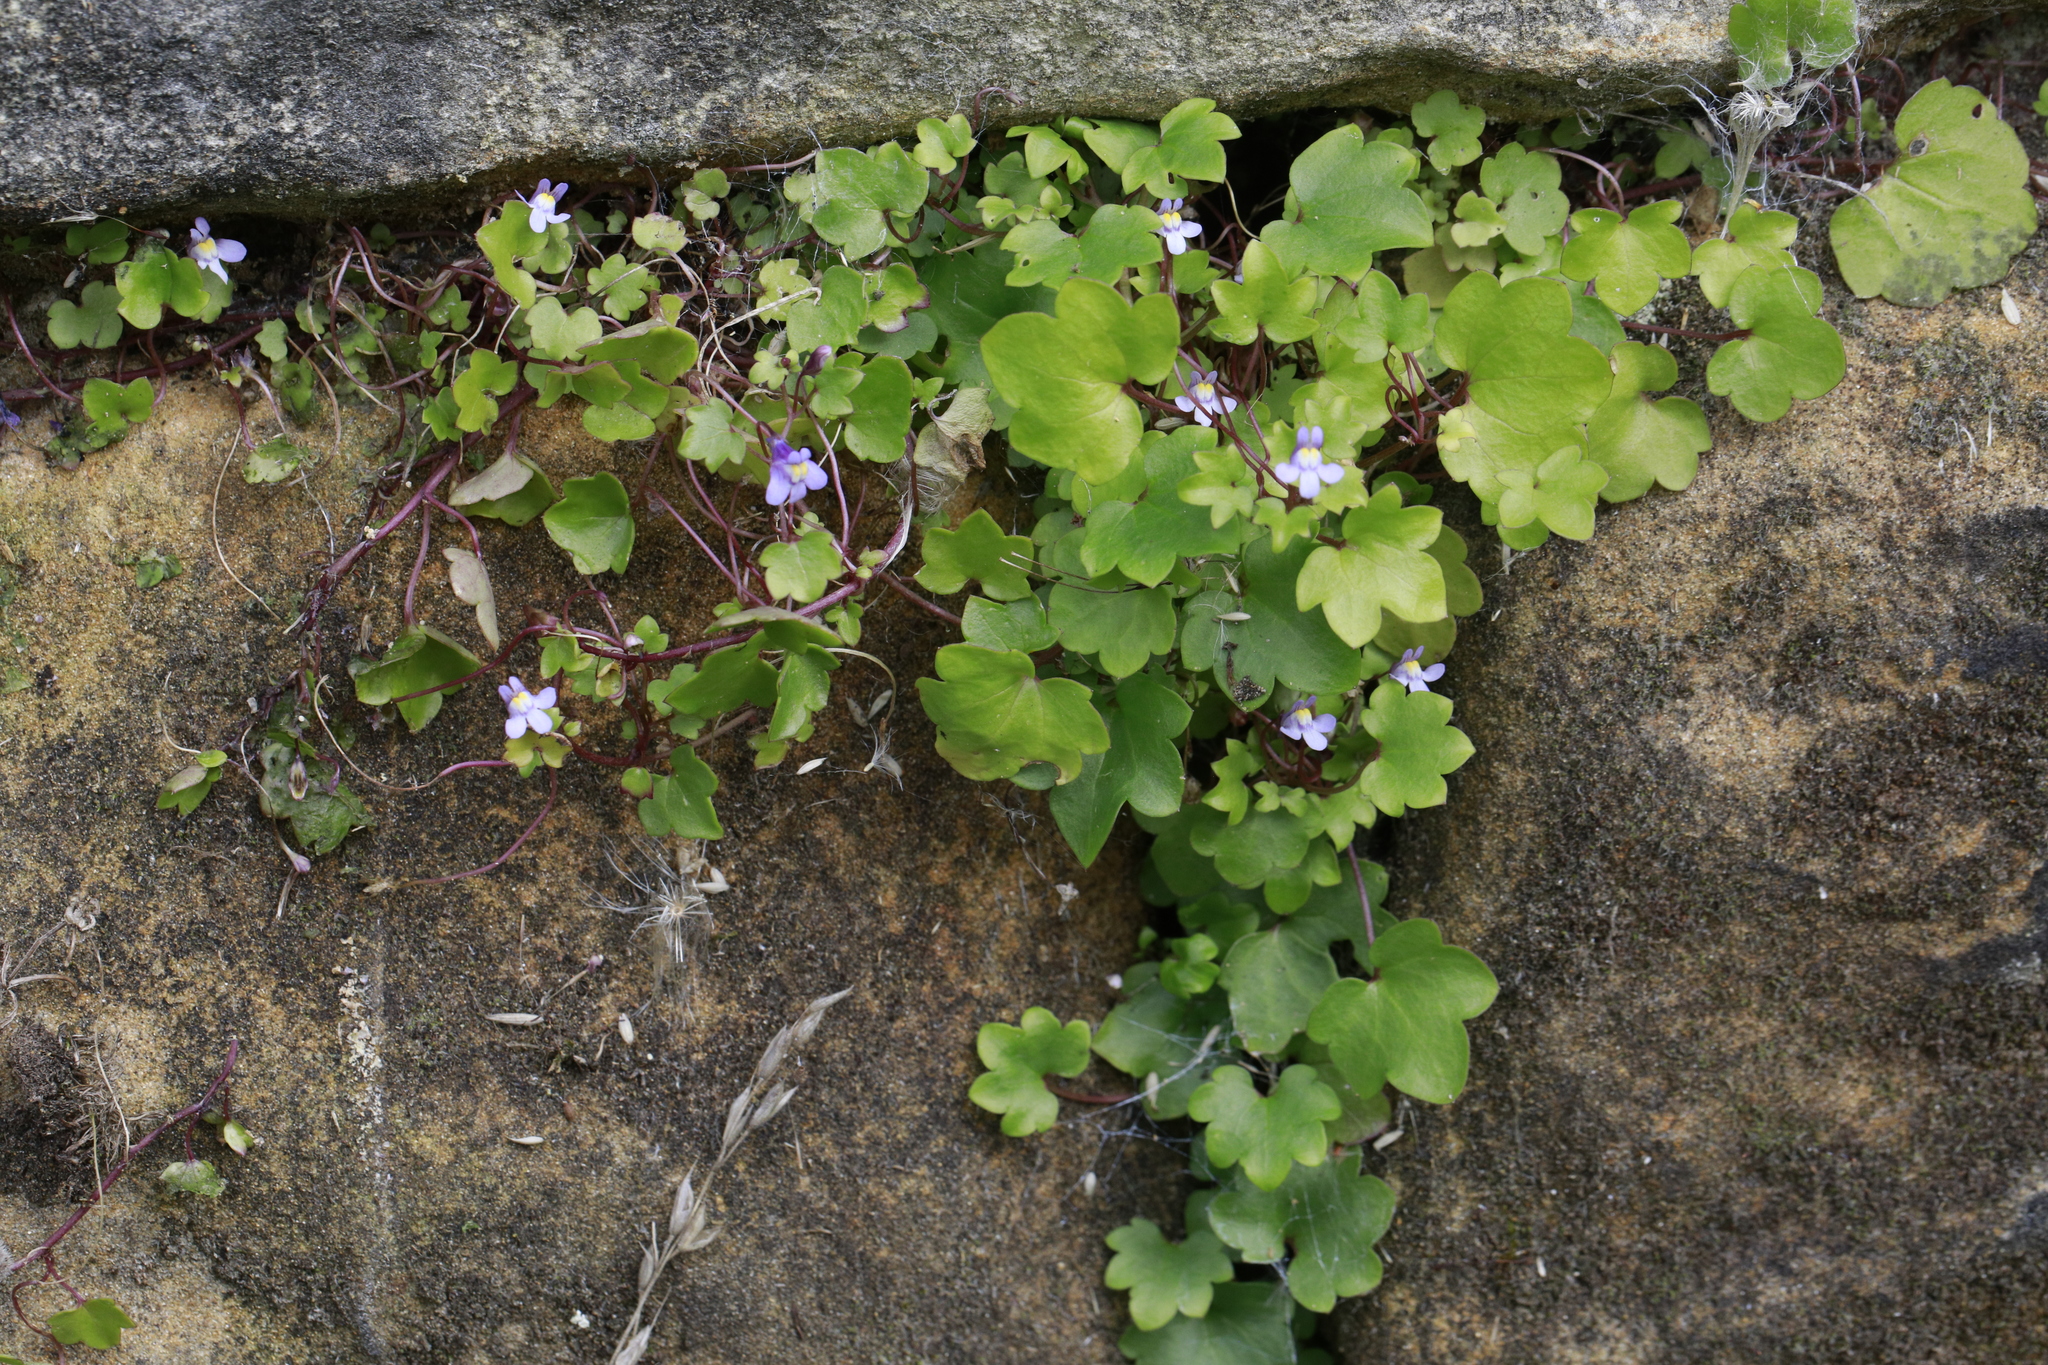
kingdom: Plantae
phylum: Tracheophyta
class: Magnoliopsida
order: Lamiales
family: Plantaginaceae
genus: Cymbalaria
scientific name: Cymbalaria muralis
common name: Ivy-leaved toadflax
